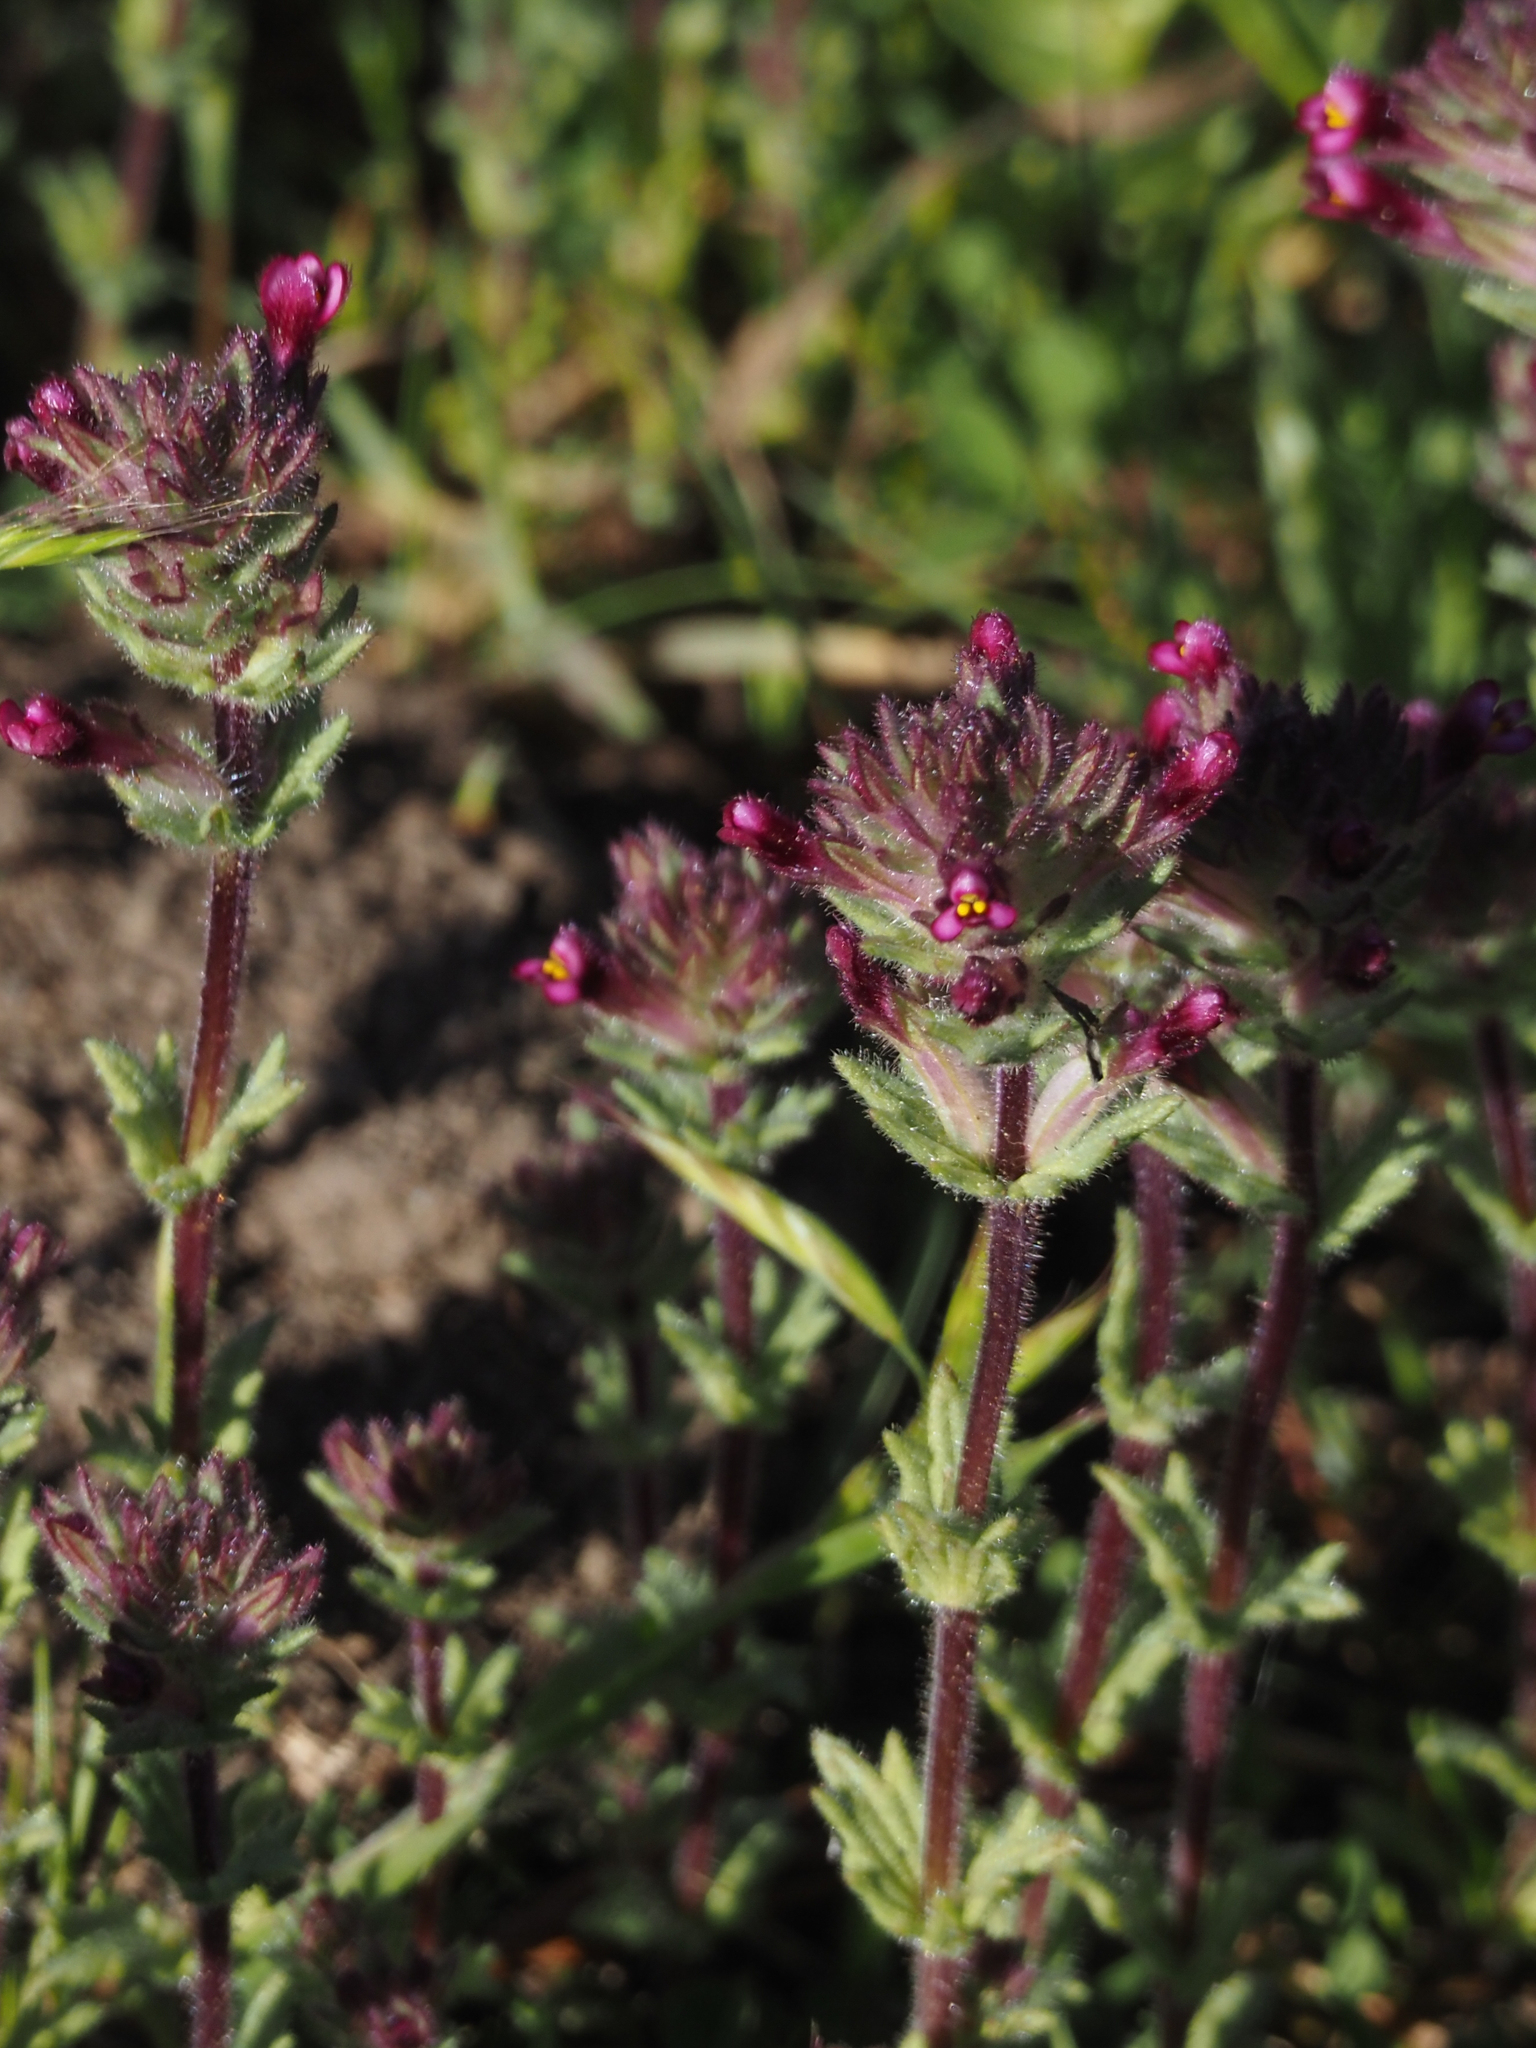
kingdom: Plantae
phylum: Tracheophyta
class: Magnoliopsida
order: Lamiales
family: Orobanchaceae
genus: Parentucellia
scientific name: Parentucellia latifolia
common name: Broadleaf glandweed
